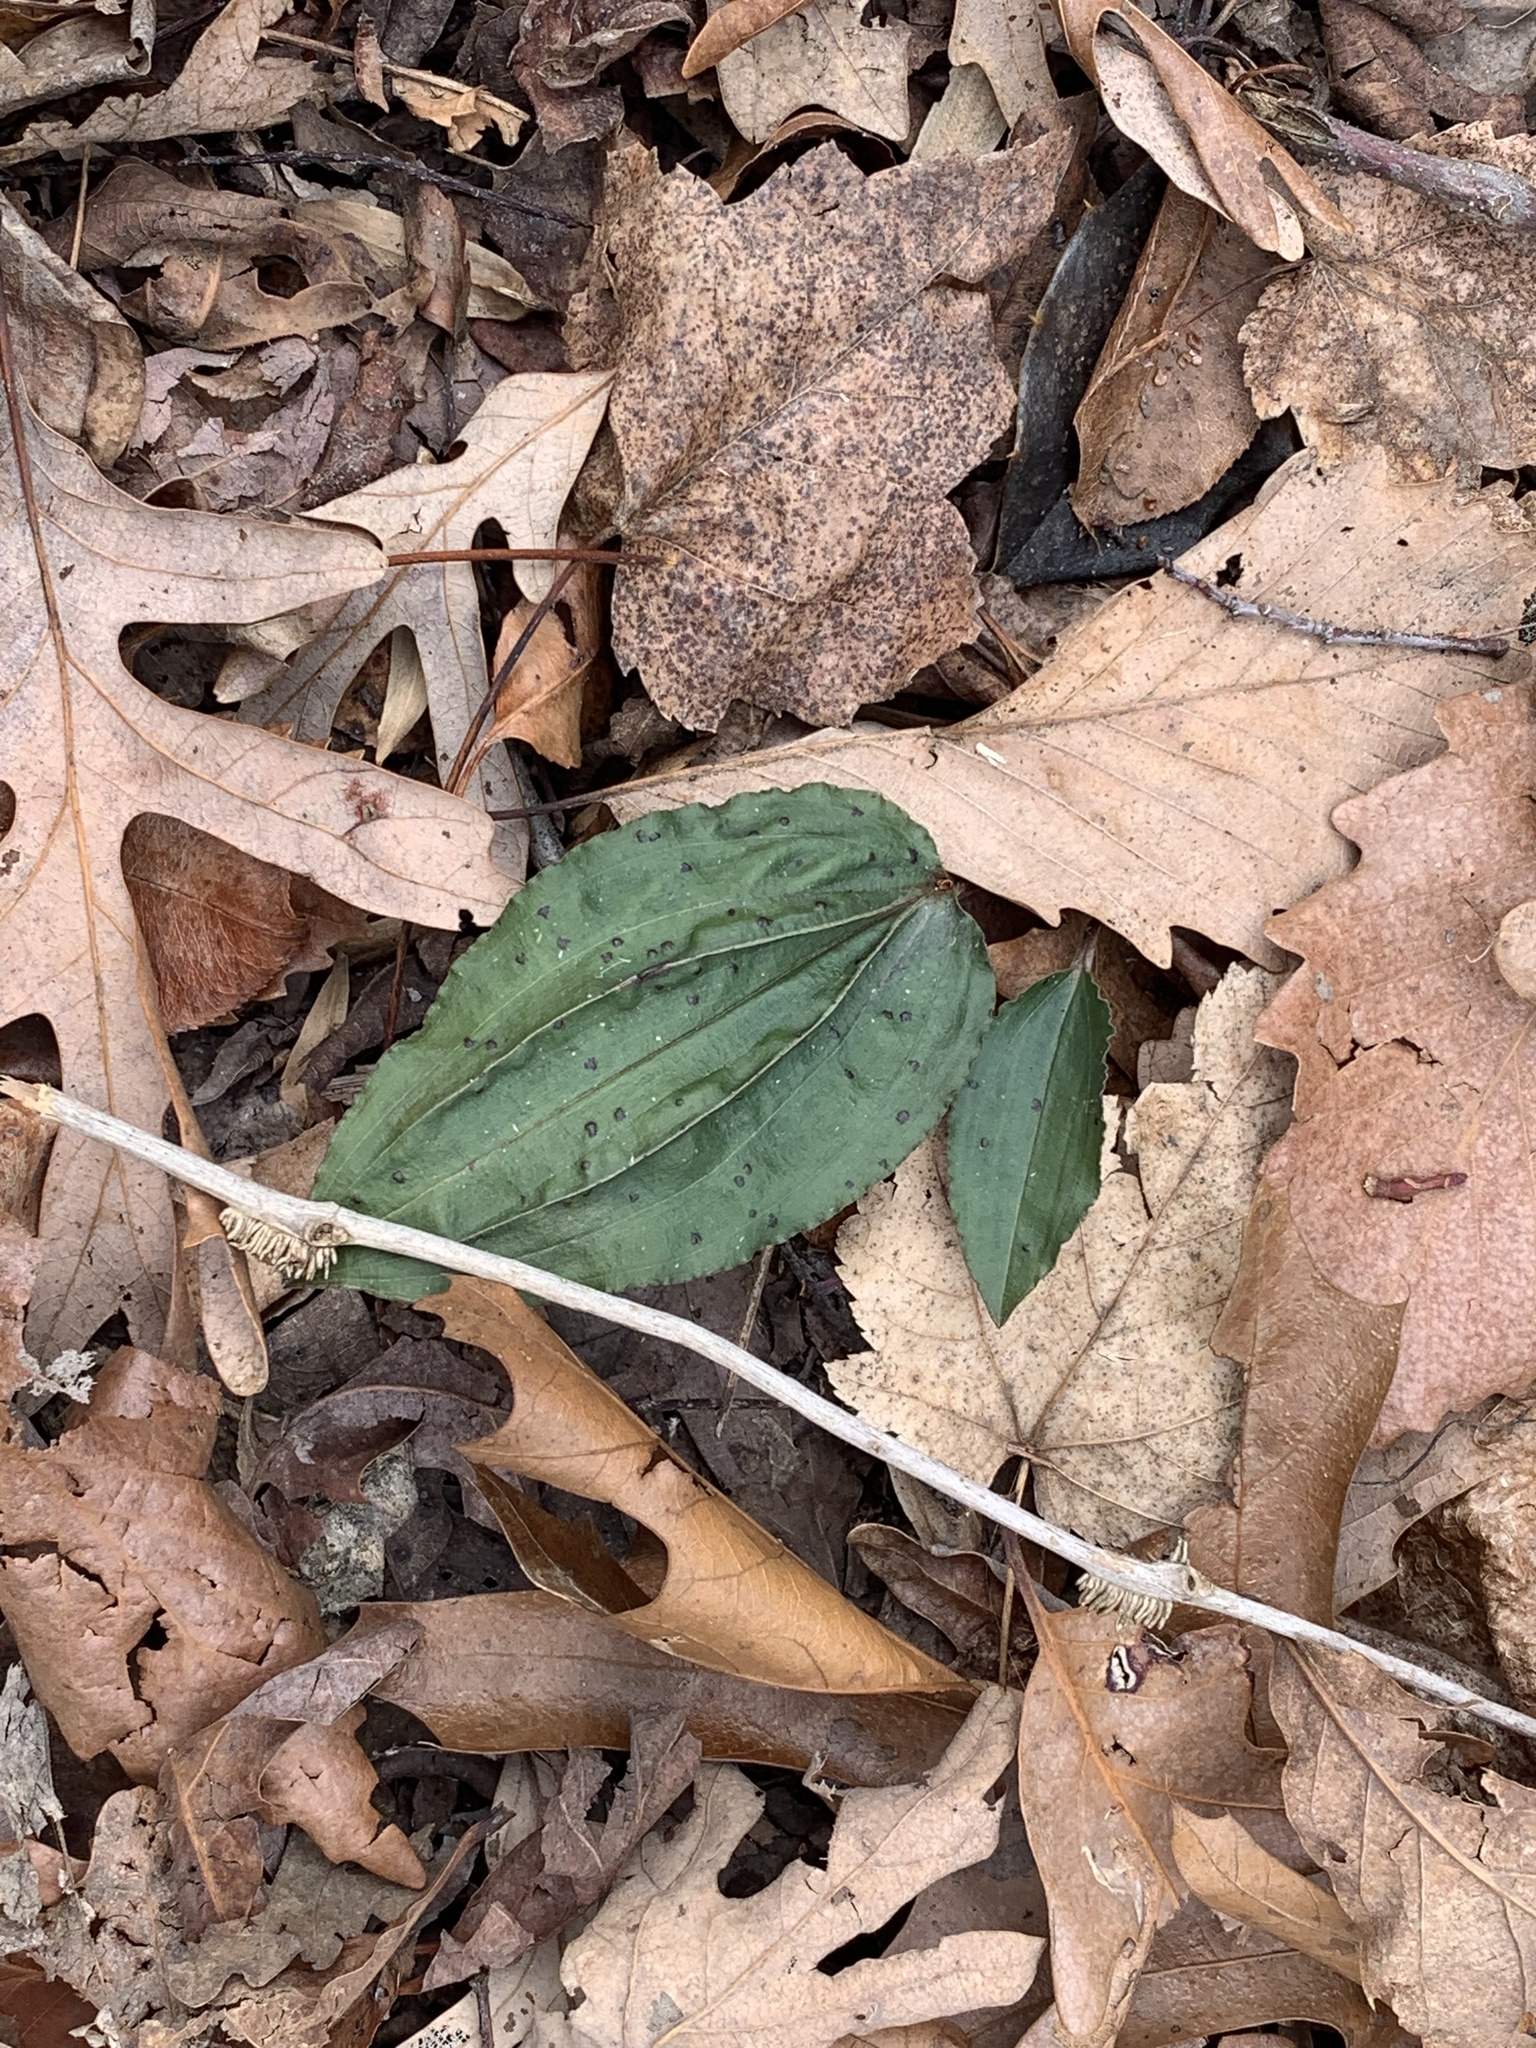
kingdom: Plantae
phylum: Tracheophyta
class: Liliopsida
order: Asparagales
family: Orchidaceae
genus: Tipularia
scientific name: Tipularia discolor
